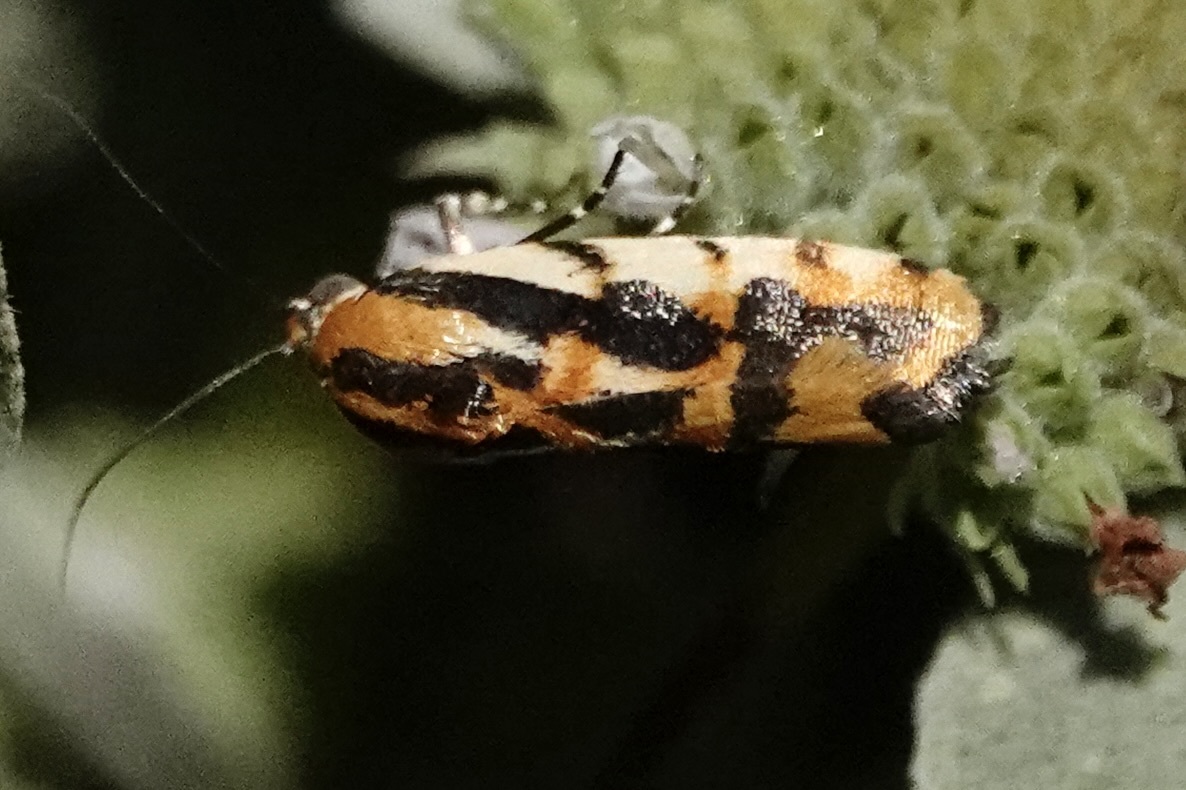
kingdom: Animalia
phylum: Arthropoda
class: Insecta
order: Lepidoptera
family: Noctuidae
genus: Acontia
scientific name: Acontia leo
